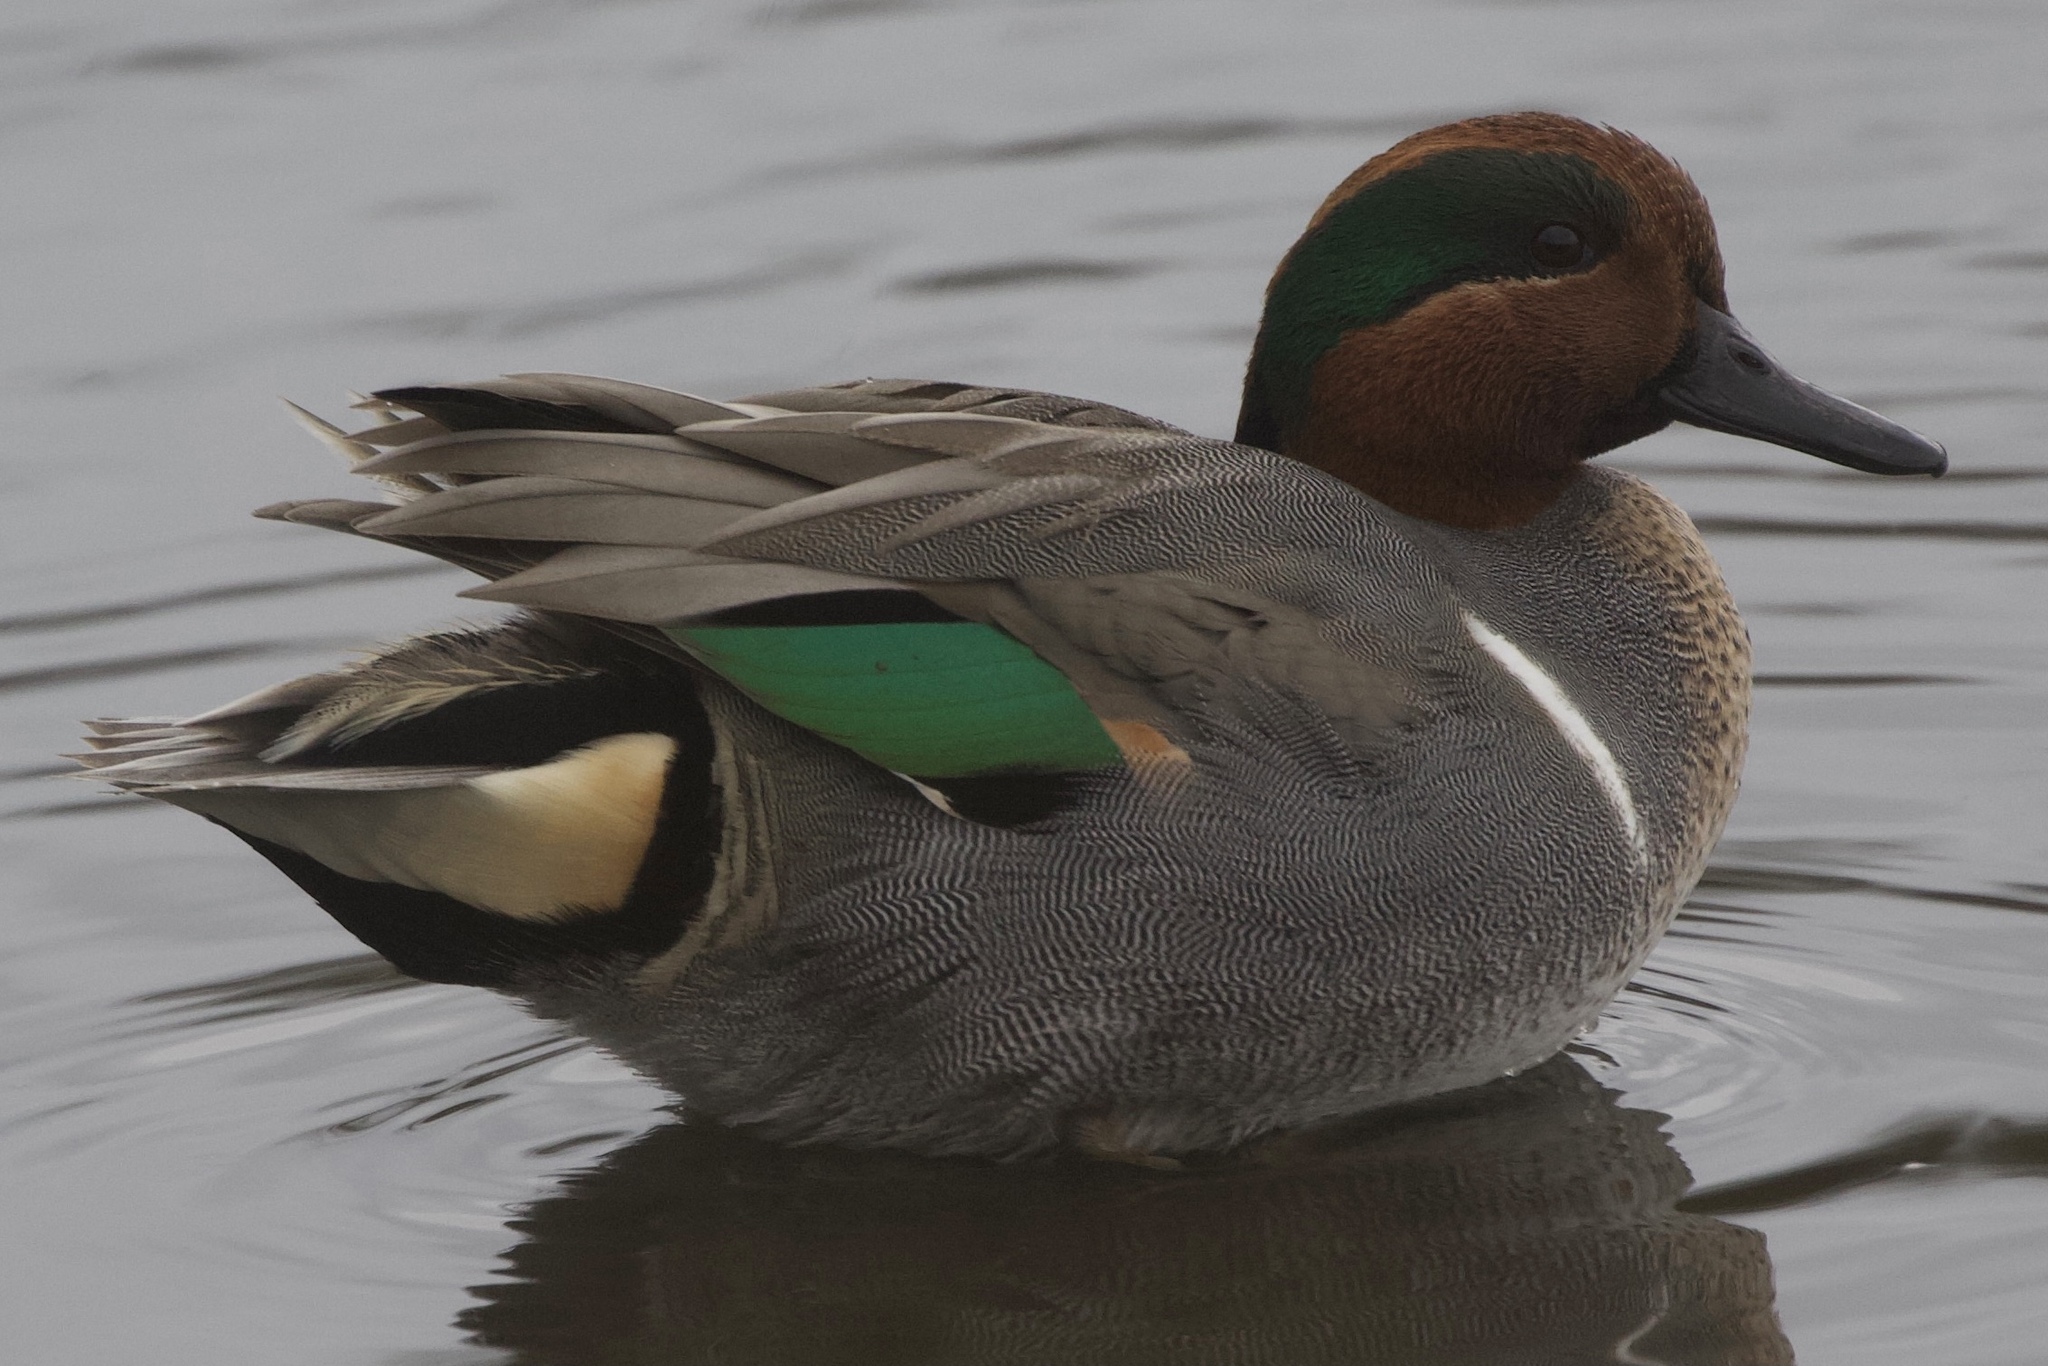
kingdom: Animalia
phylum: Chordata
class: Aves
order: Anseriformes
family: Anatidae
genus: Anas
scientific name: Anas crecca
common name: Eurasian teal
